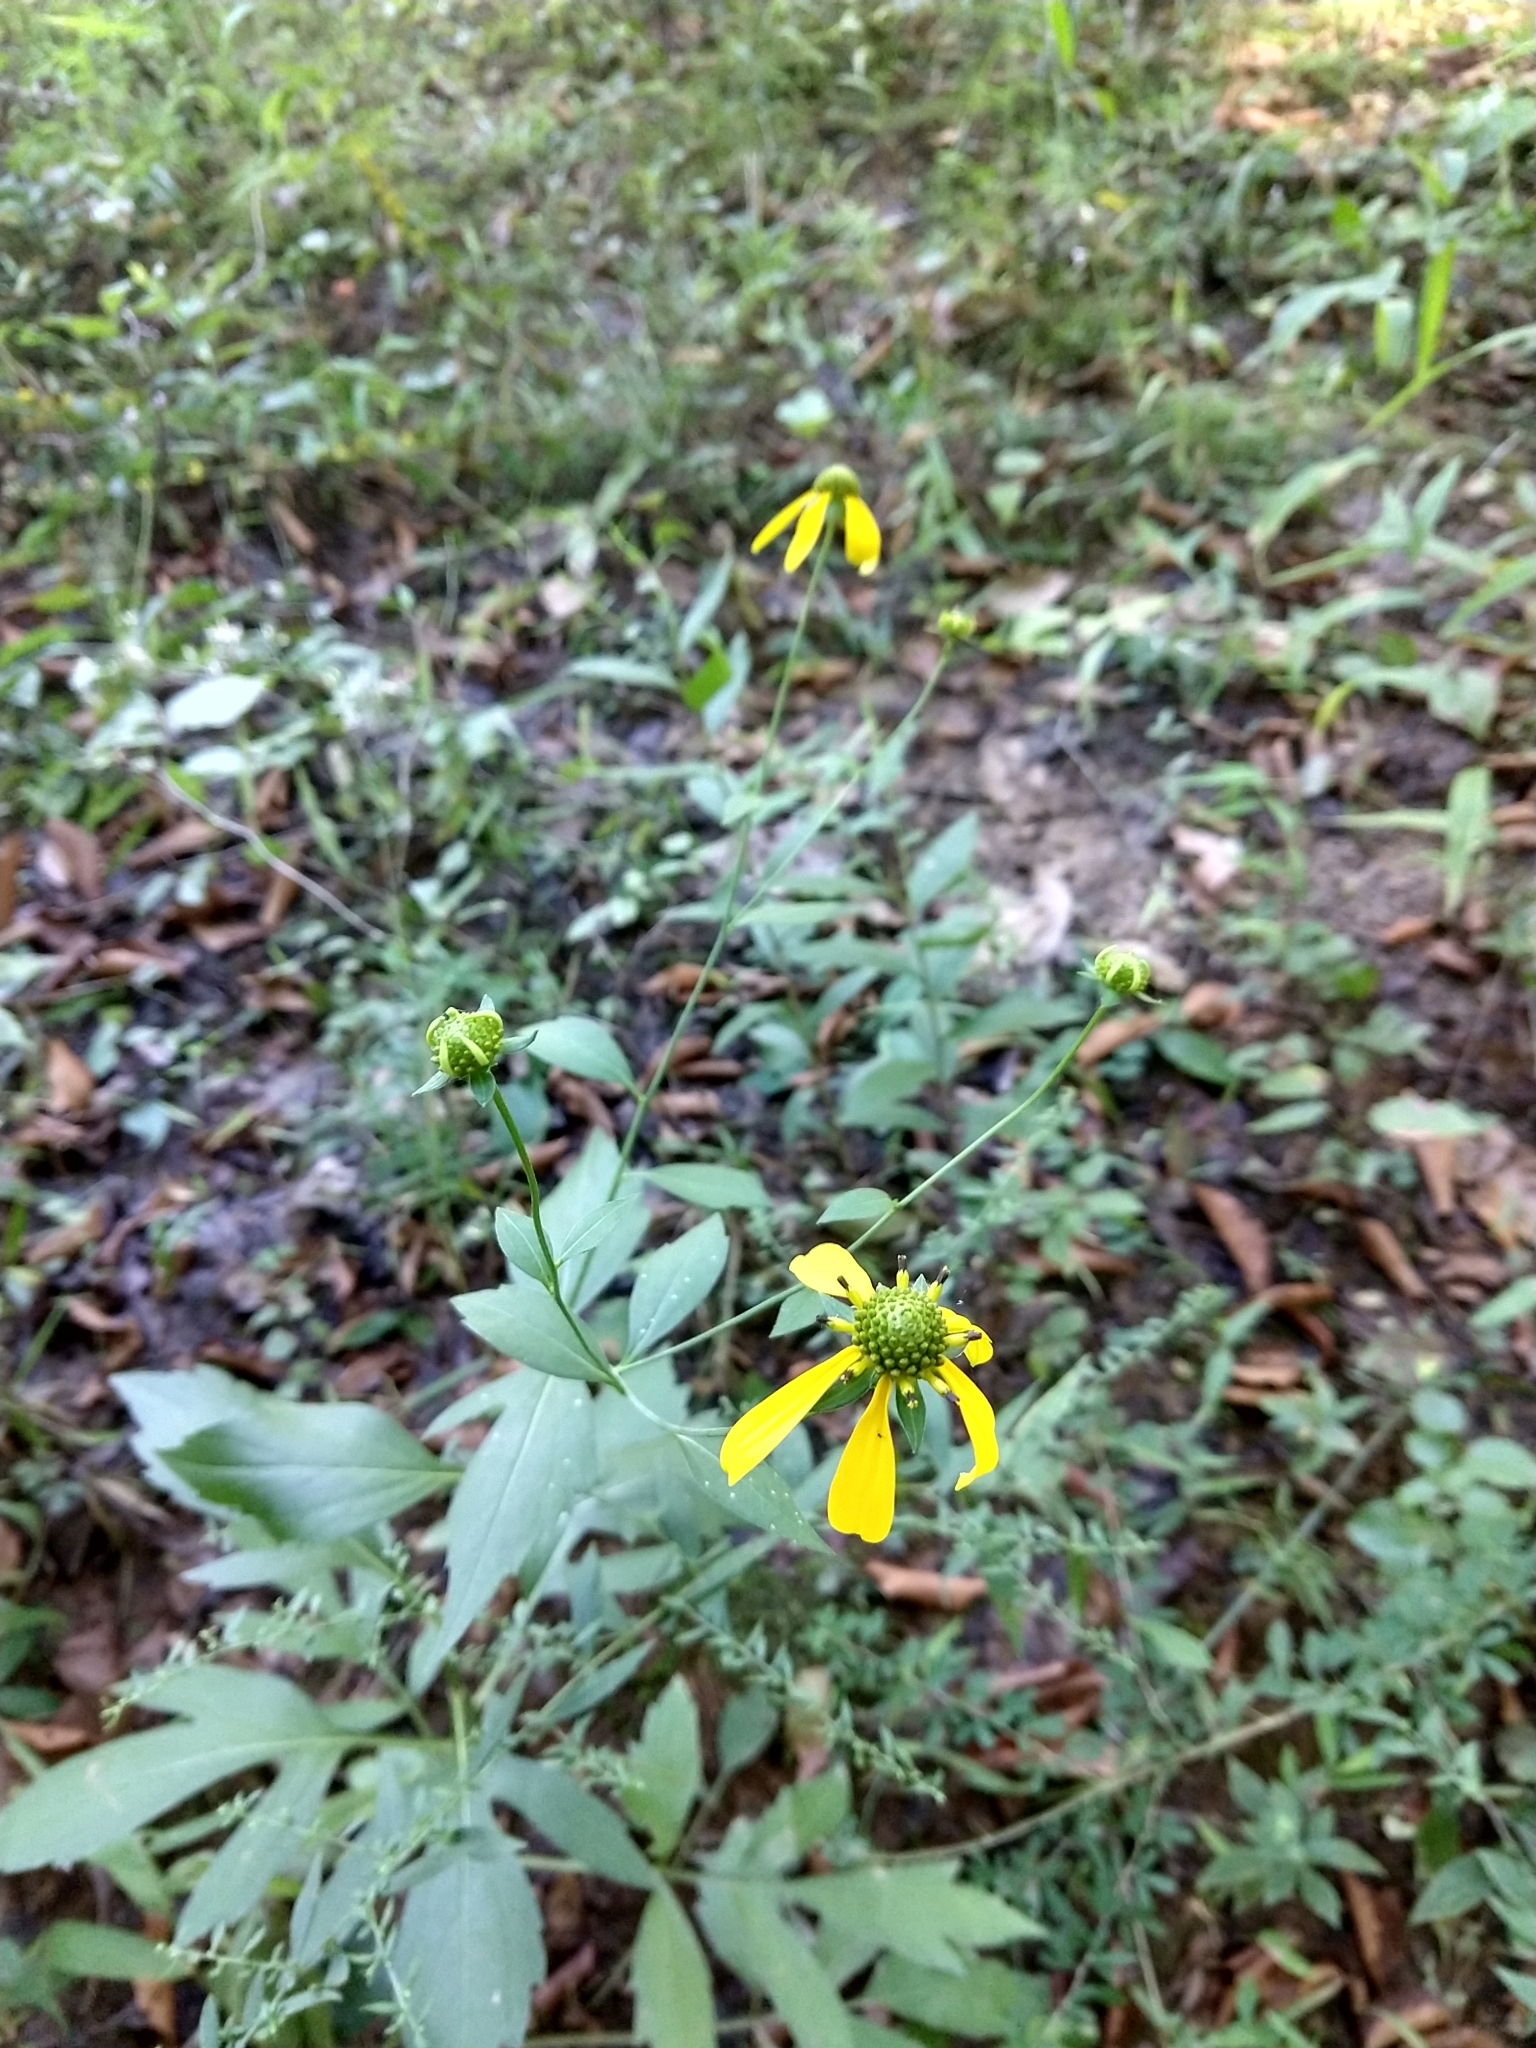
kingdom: Plantae
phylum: Tracheophyta
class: Magnoliopsida
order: Asterales
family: Asteraceae
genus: Rudbeckia
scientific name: Rudbeckia laciniata
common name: Coneflower
